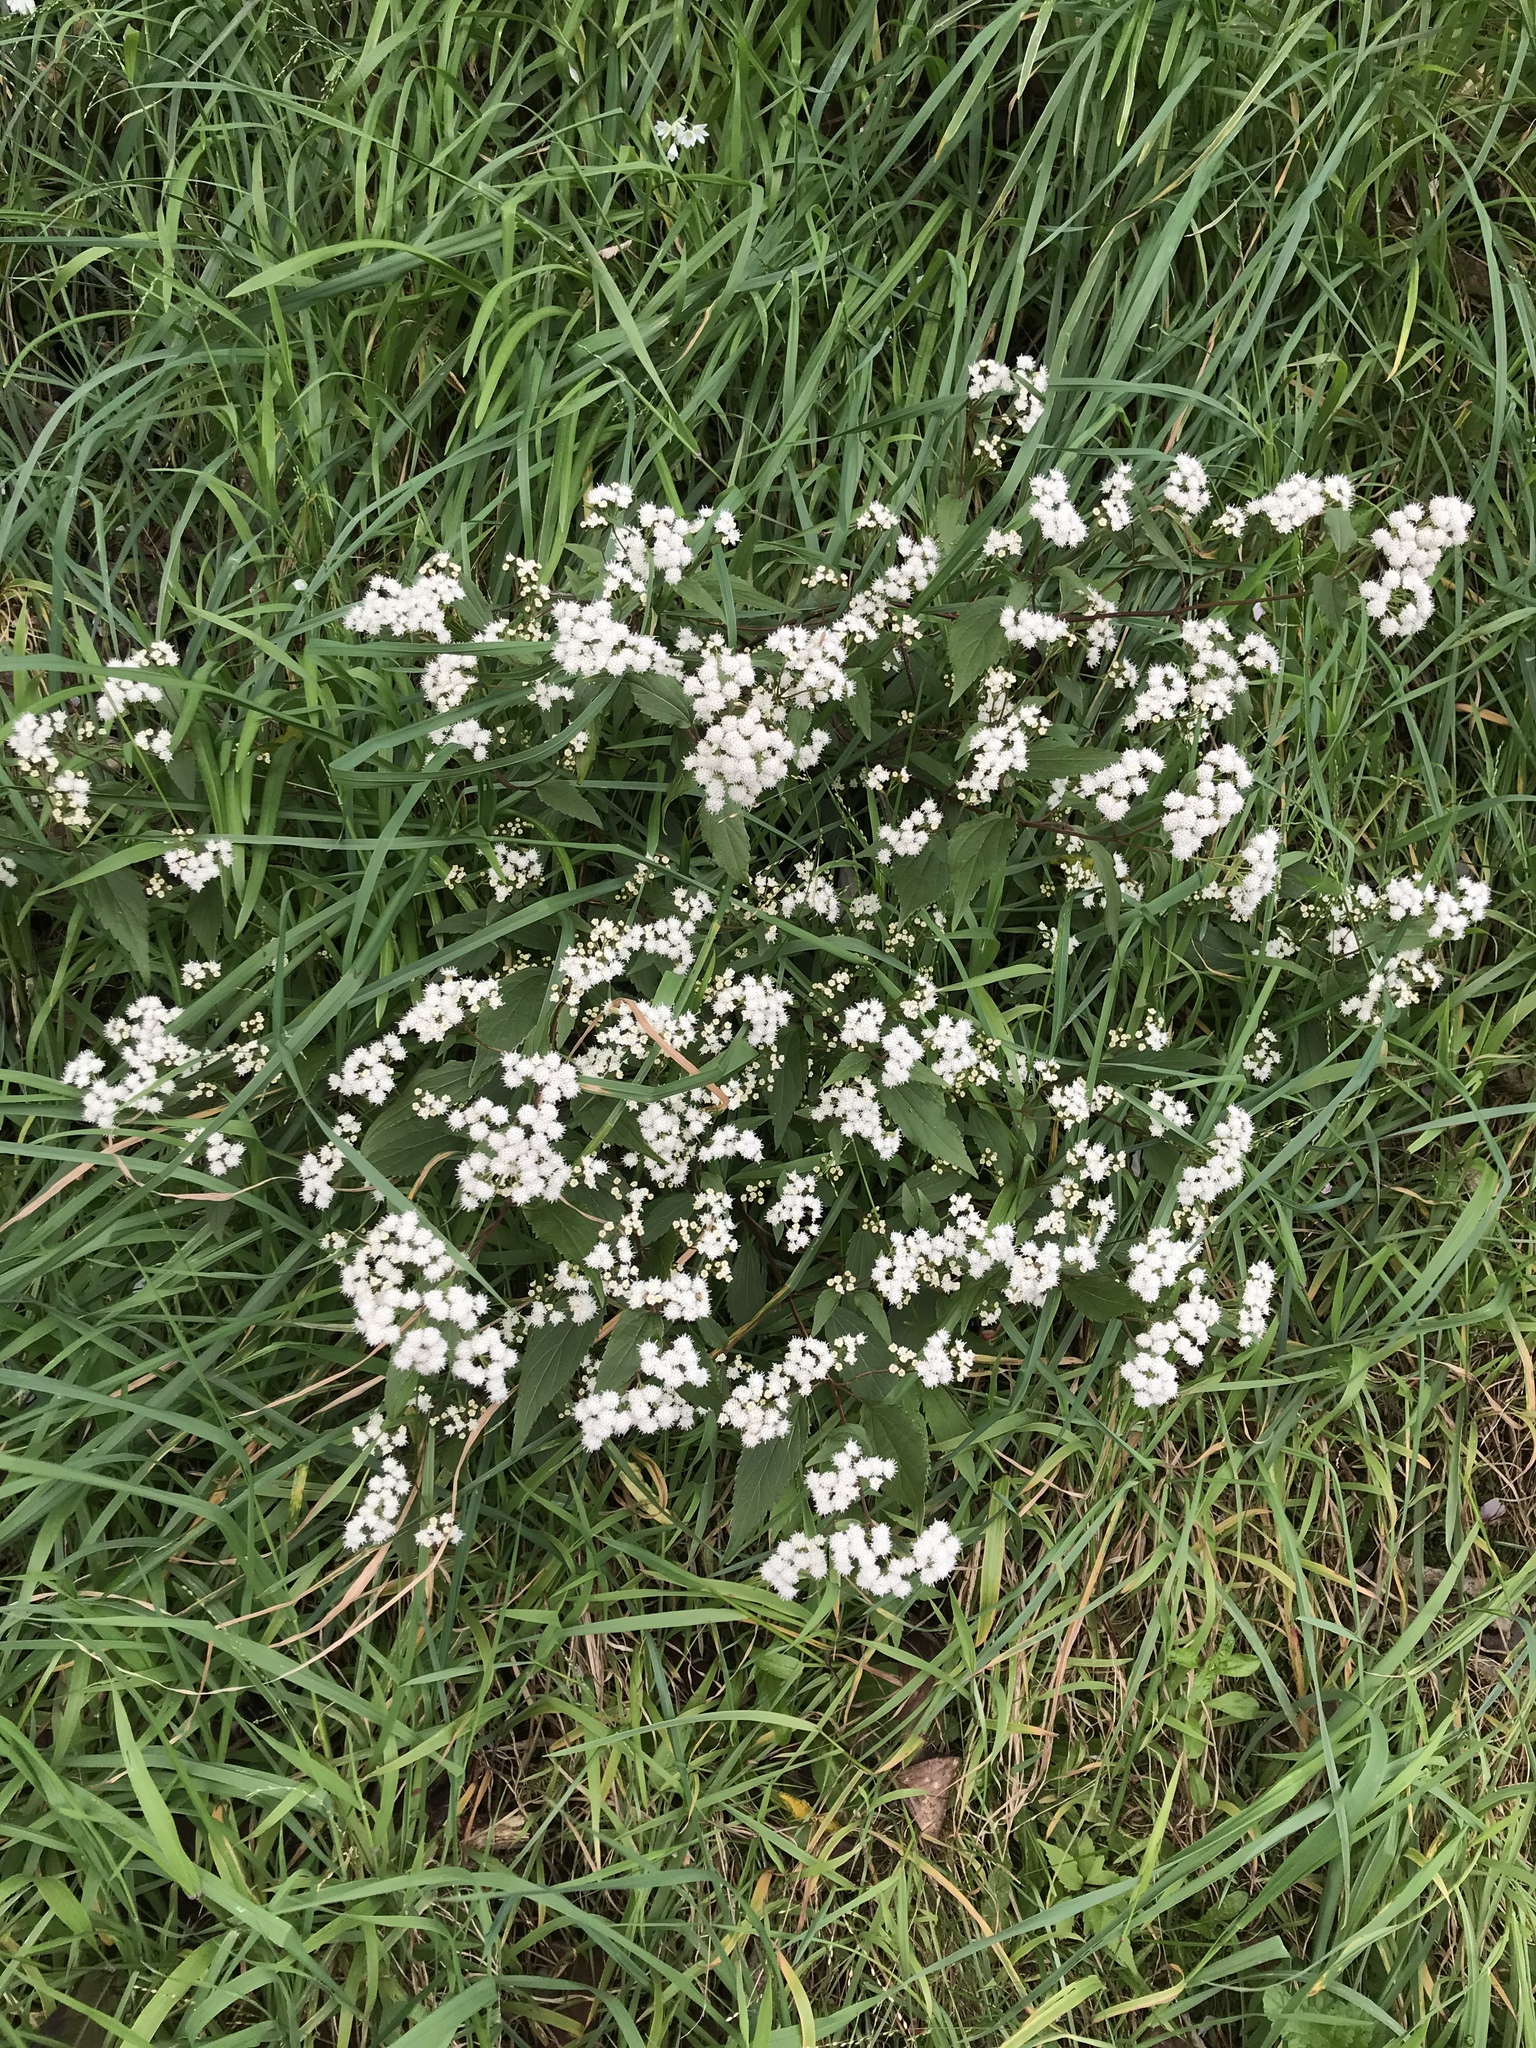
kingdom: Plantae
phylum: Tracheophyta
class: Magnoliopsida
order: Asterales
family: Asteraceae
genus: Ageratina
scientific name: Ageratina riparia
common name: Creeping croftonweed
